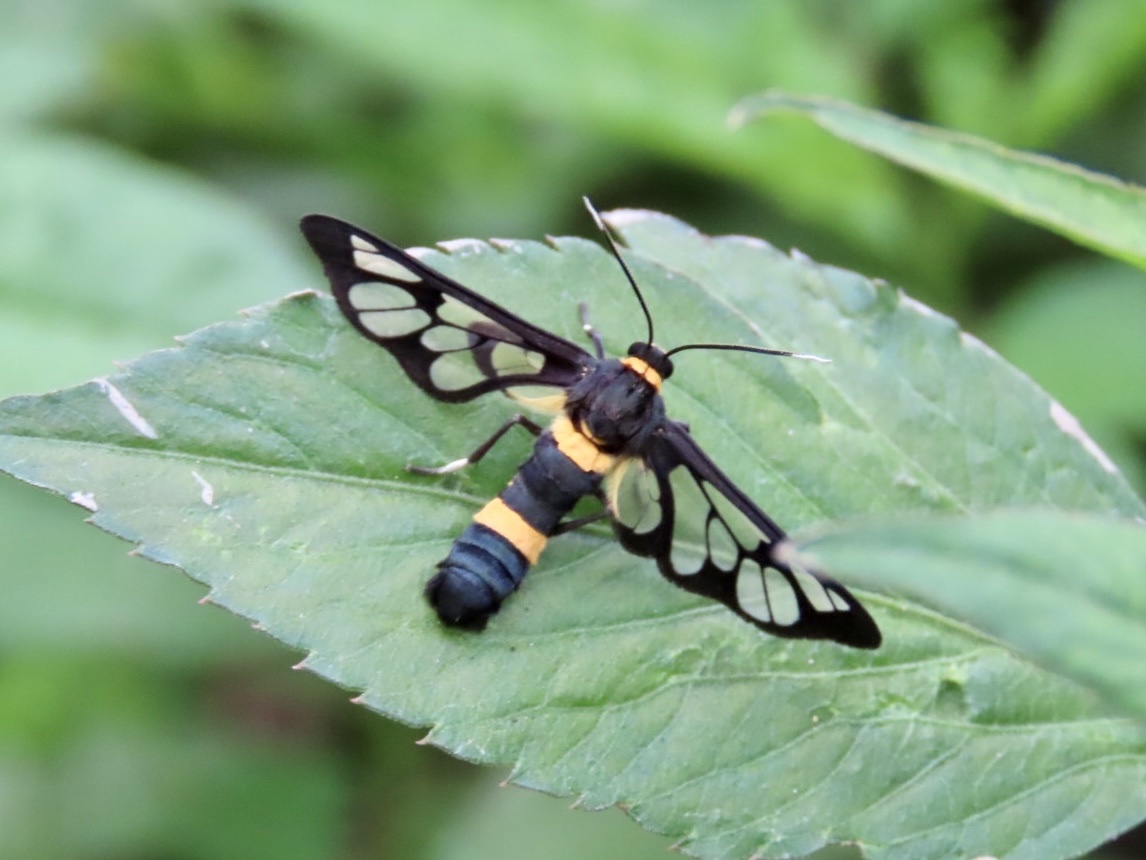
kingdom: Animalia
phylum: Arthropoda
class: Insecta
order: Lepidoptera
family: Erebidae
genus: Syntomoides
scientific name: Syntomoides imaon
